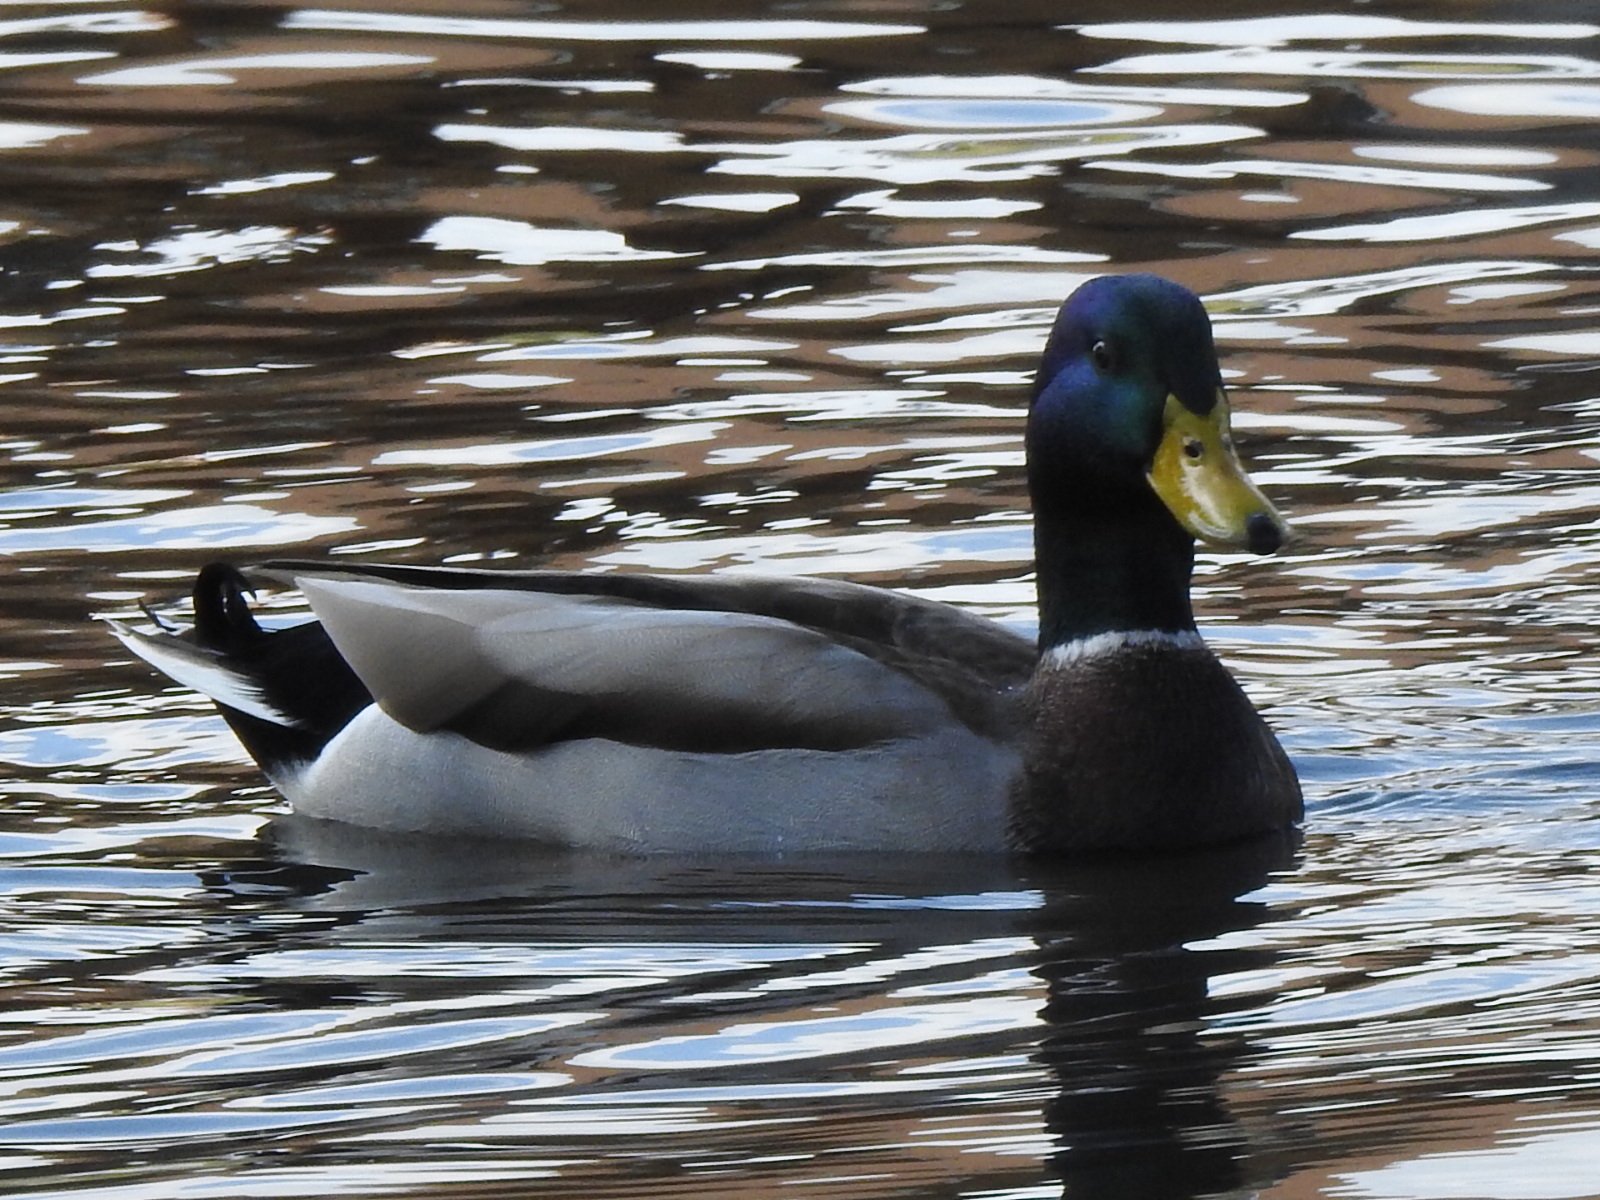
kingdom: Animalia
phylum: Chordata
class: Aves
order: Anseriformes
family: Anatidae
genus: Anas
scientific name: Anas platyrhynchos
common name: Mallard
